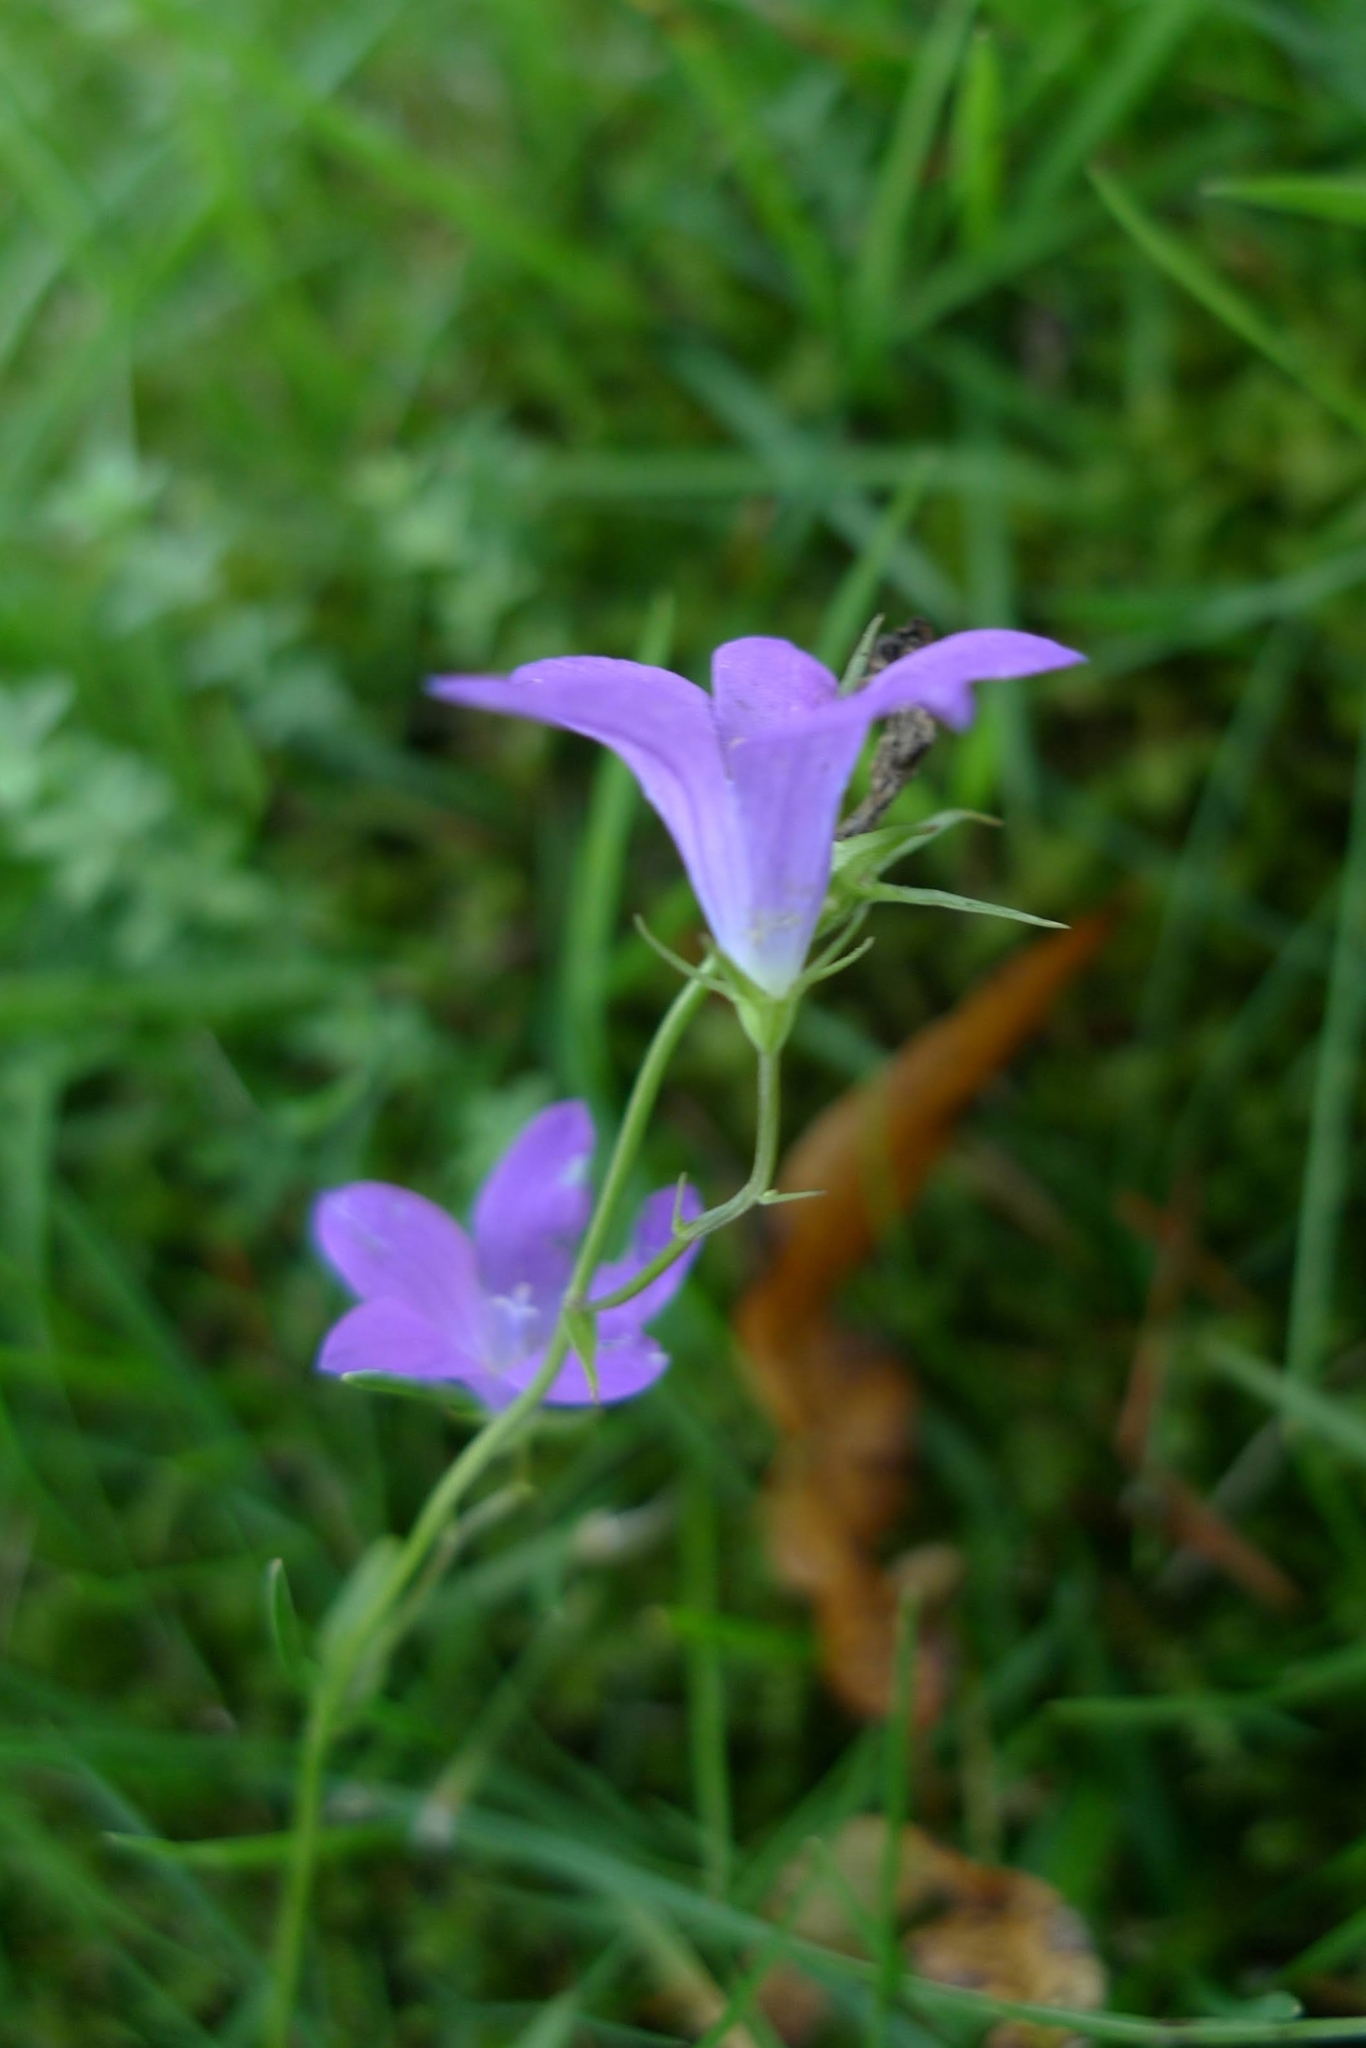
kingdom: Plantae
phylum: Tracheophyta
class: Magnoliopsida
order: Asterales
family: Campanulaceae
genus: Campanula
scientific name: Campanula patula
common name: Spreading bellflower
